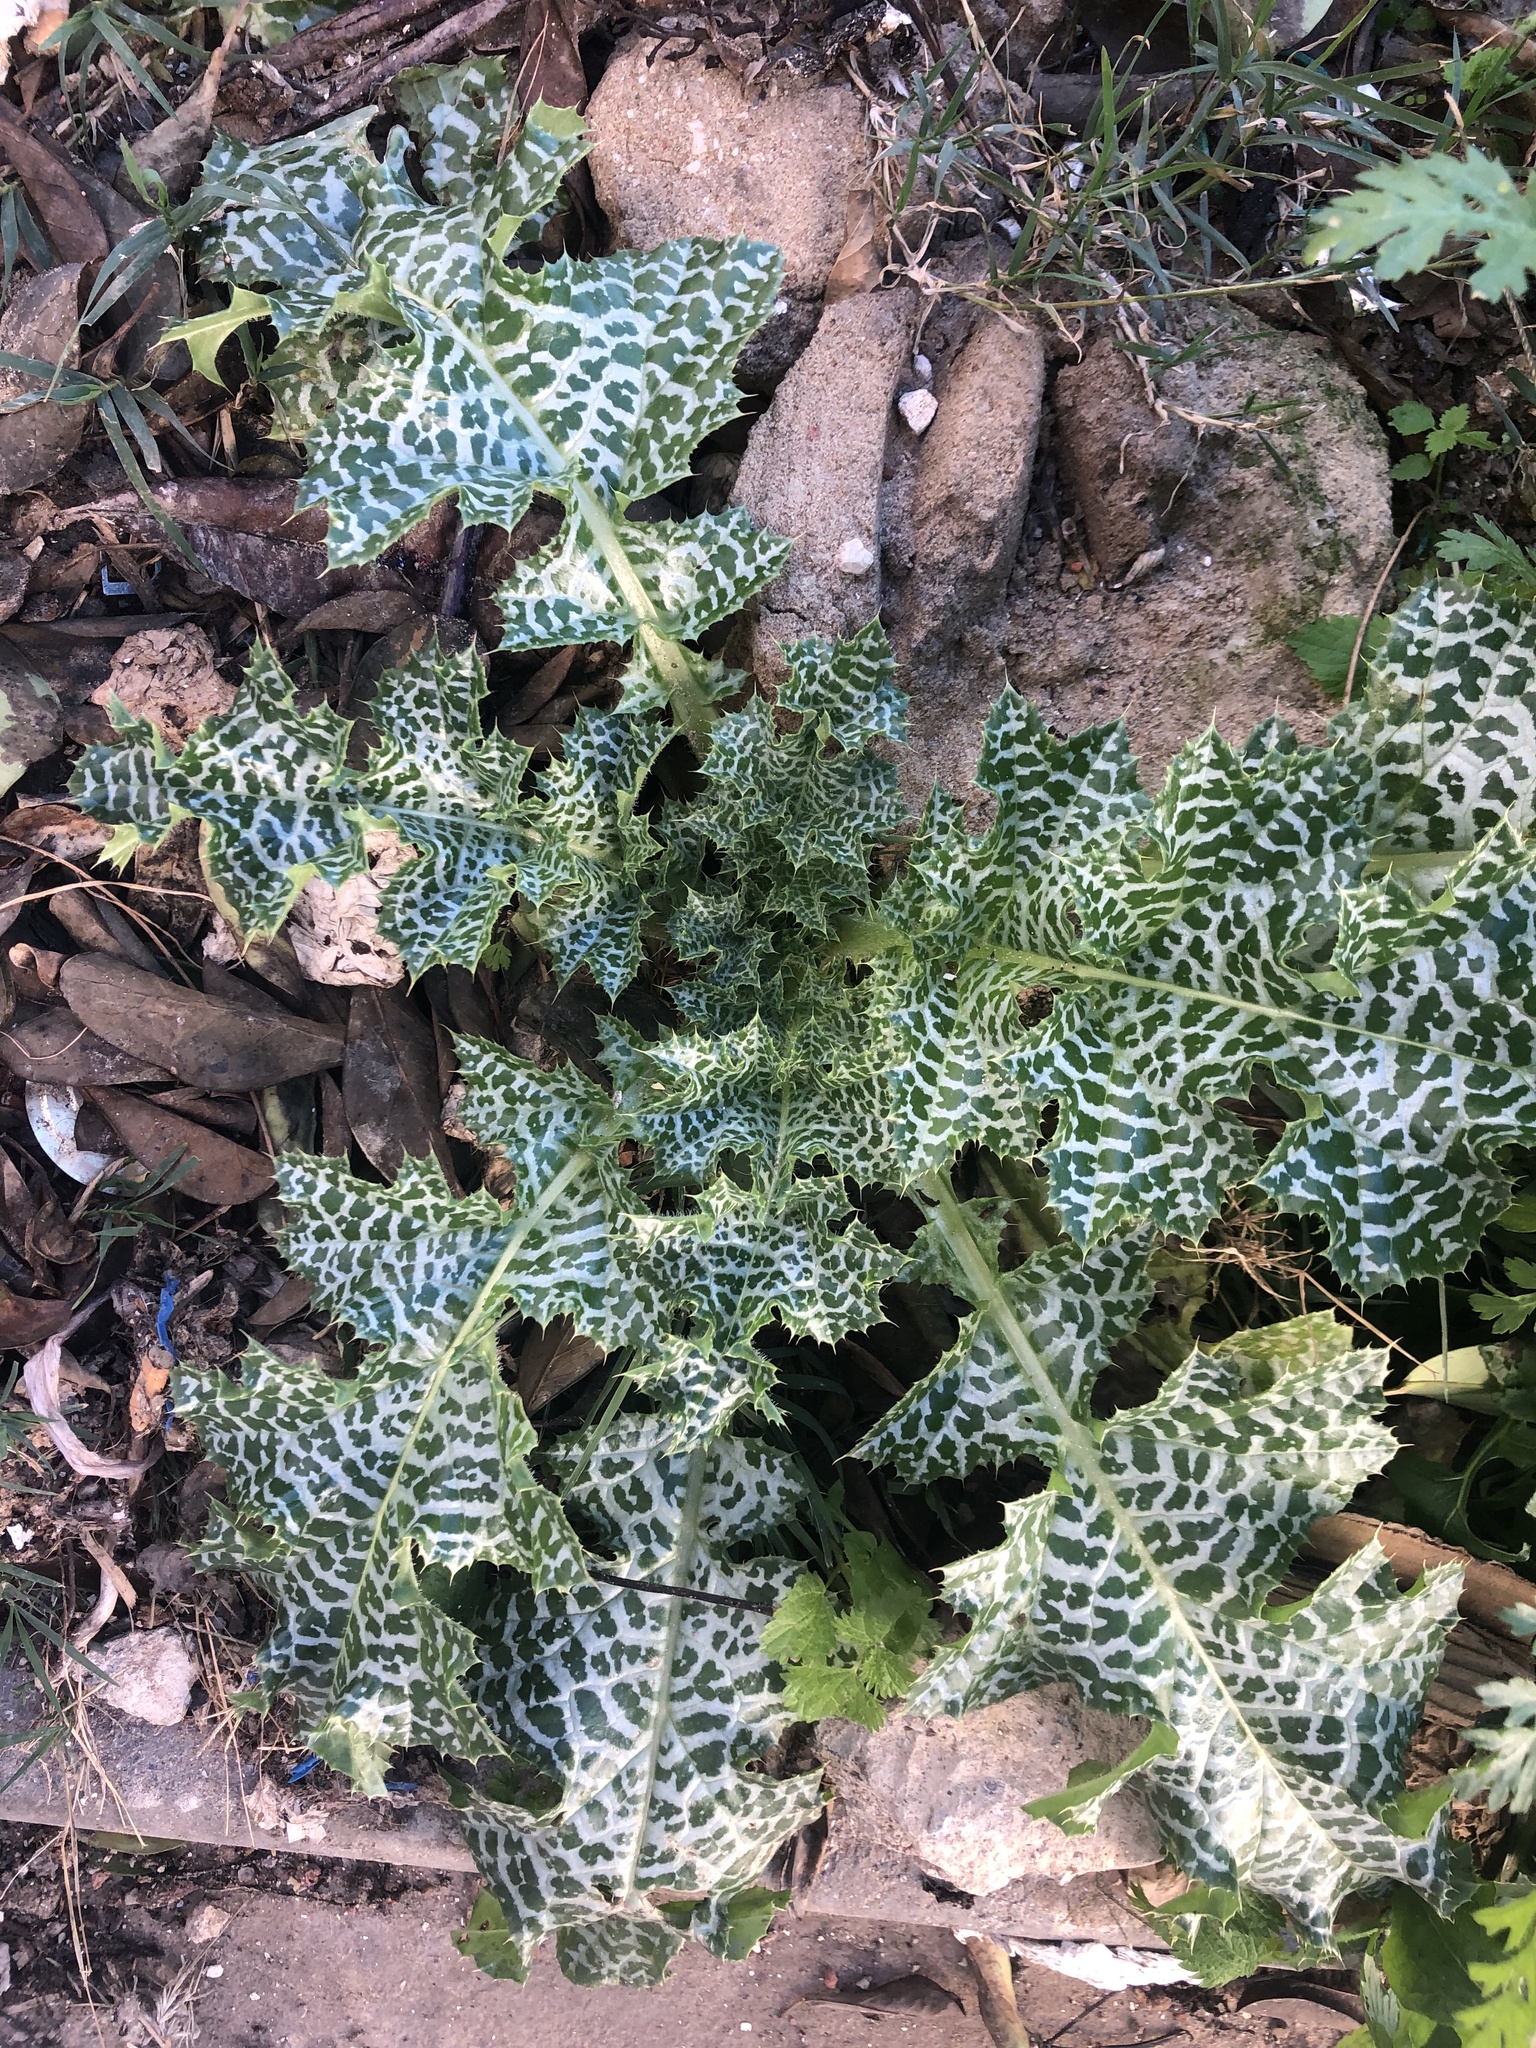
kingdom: Plantae
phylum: Tracheophyta
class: Magnoliopsida
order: Asterales
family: Asteraceae
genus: Silybum
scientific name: Silybum marianum
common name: Milk thistle
